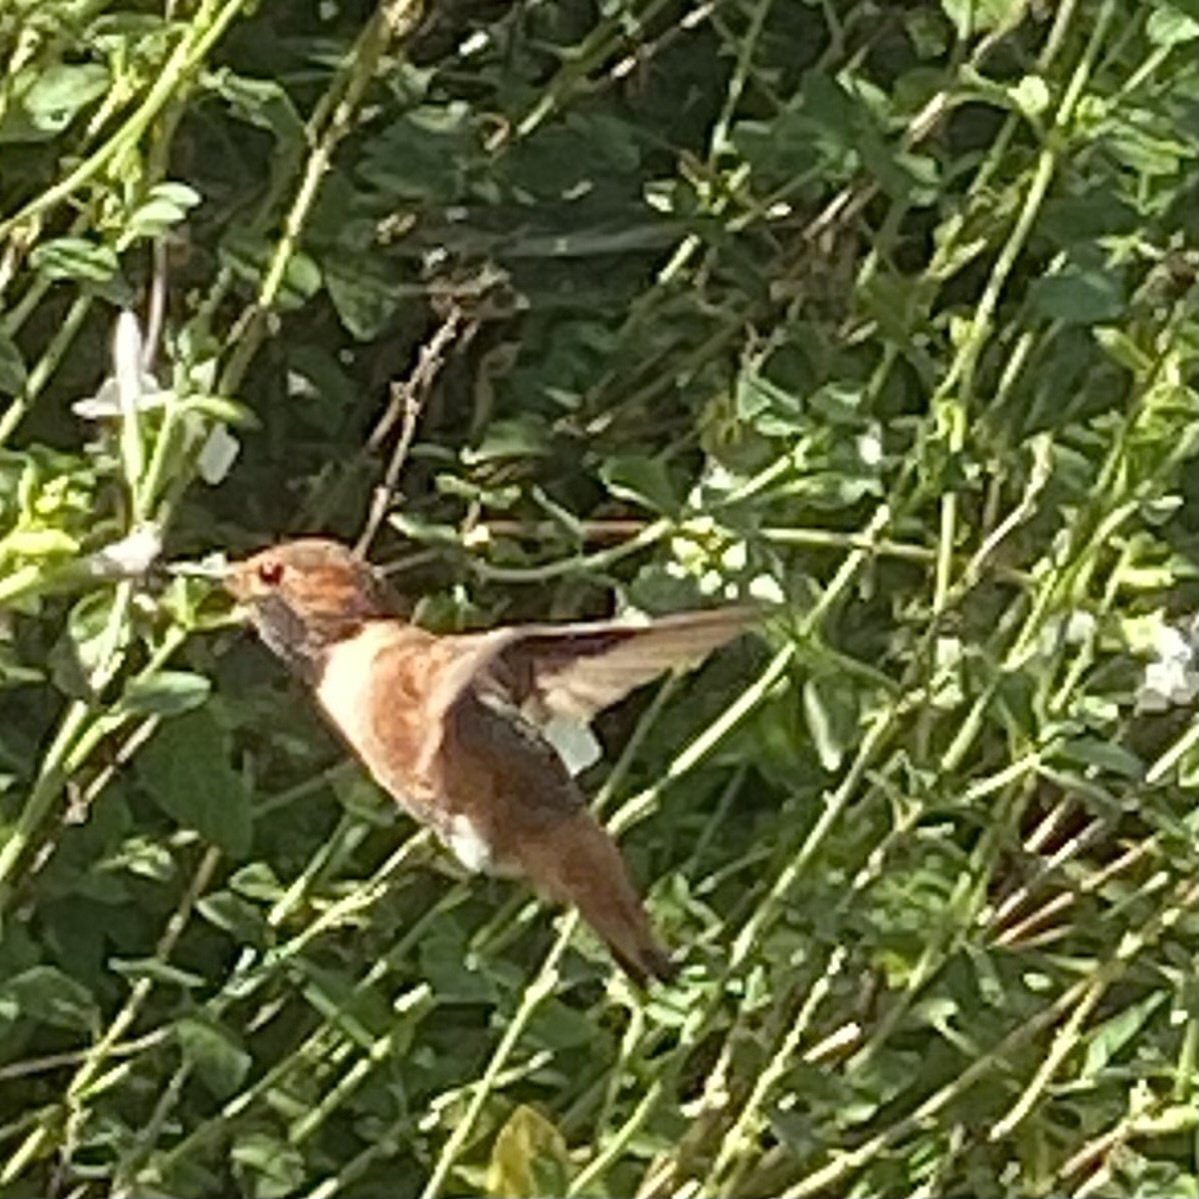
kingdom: Animalia
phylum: Chordata
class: Aves
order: Apodiformes
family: Trochilidae
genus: Selasphorus
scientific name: Selasphorus
